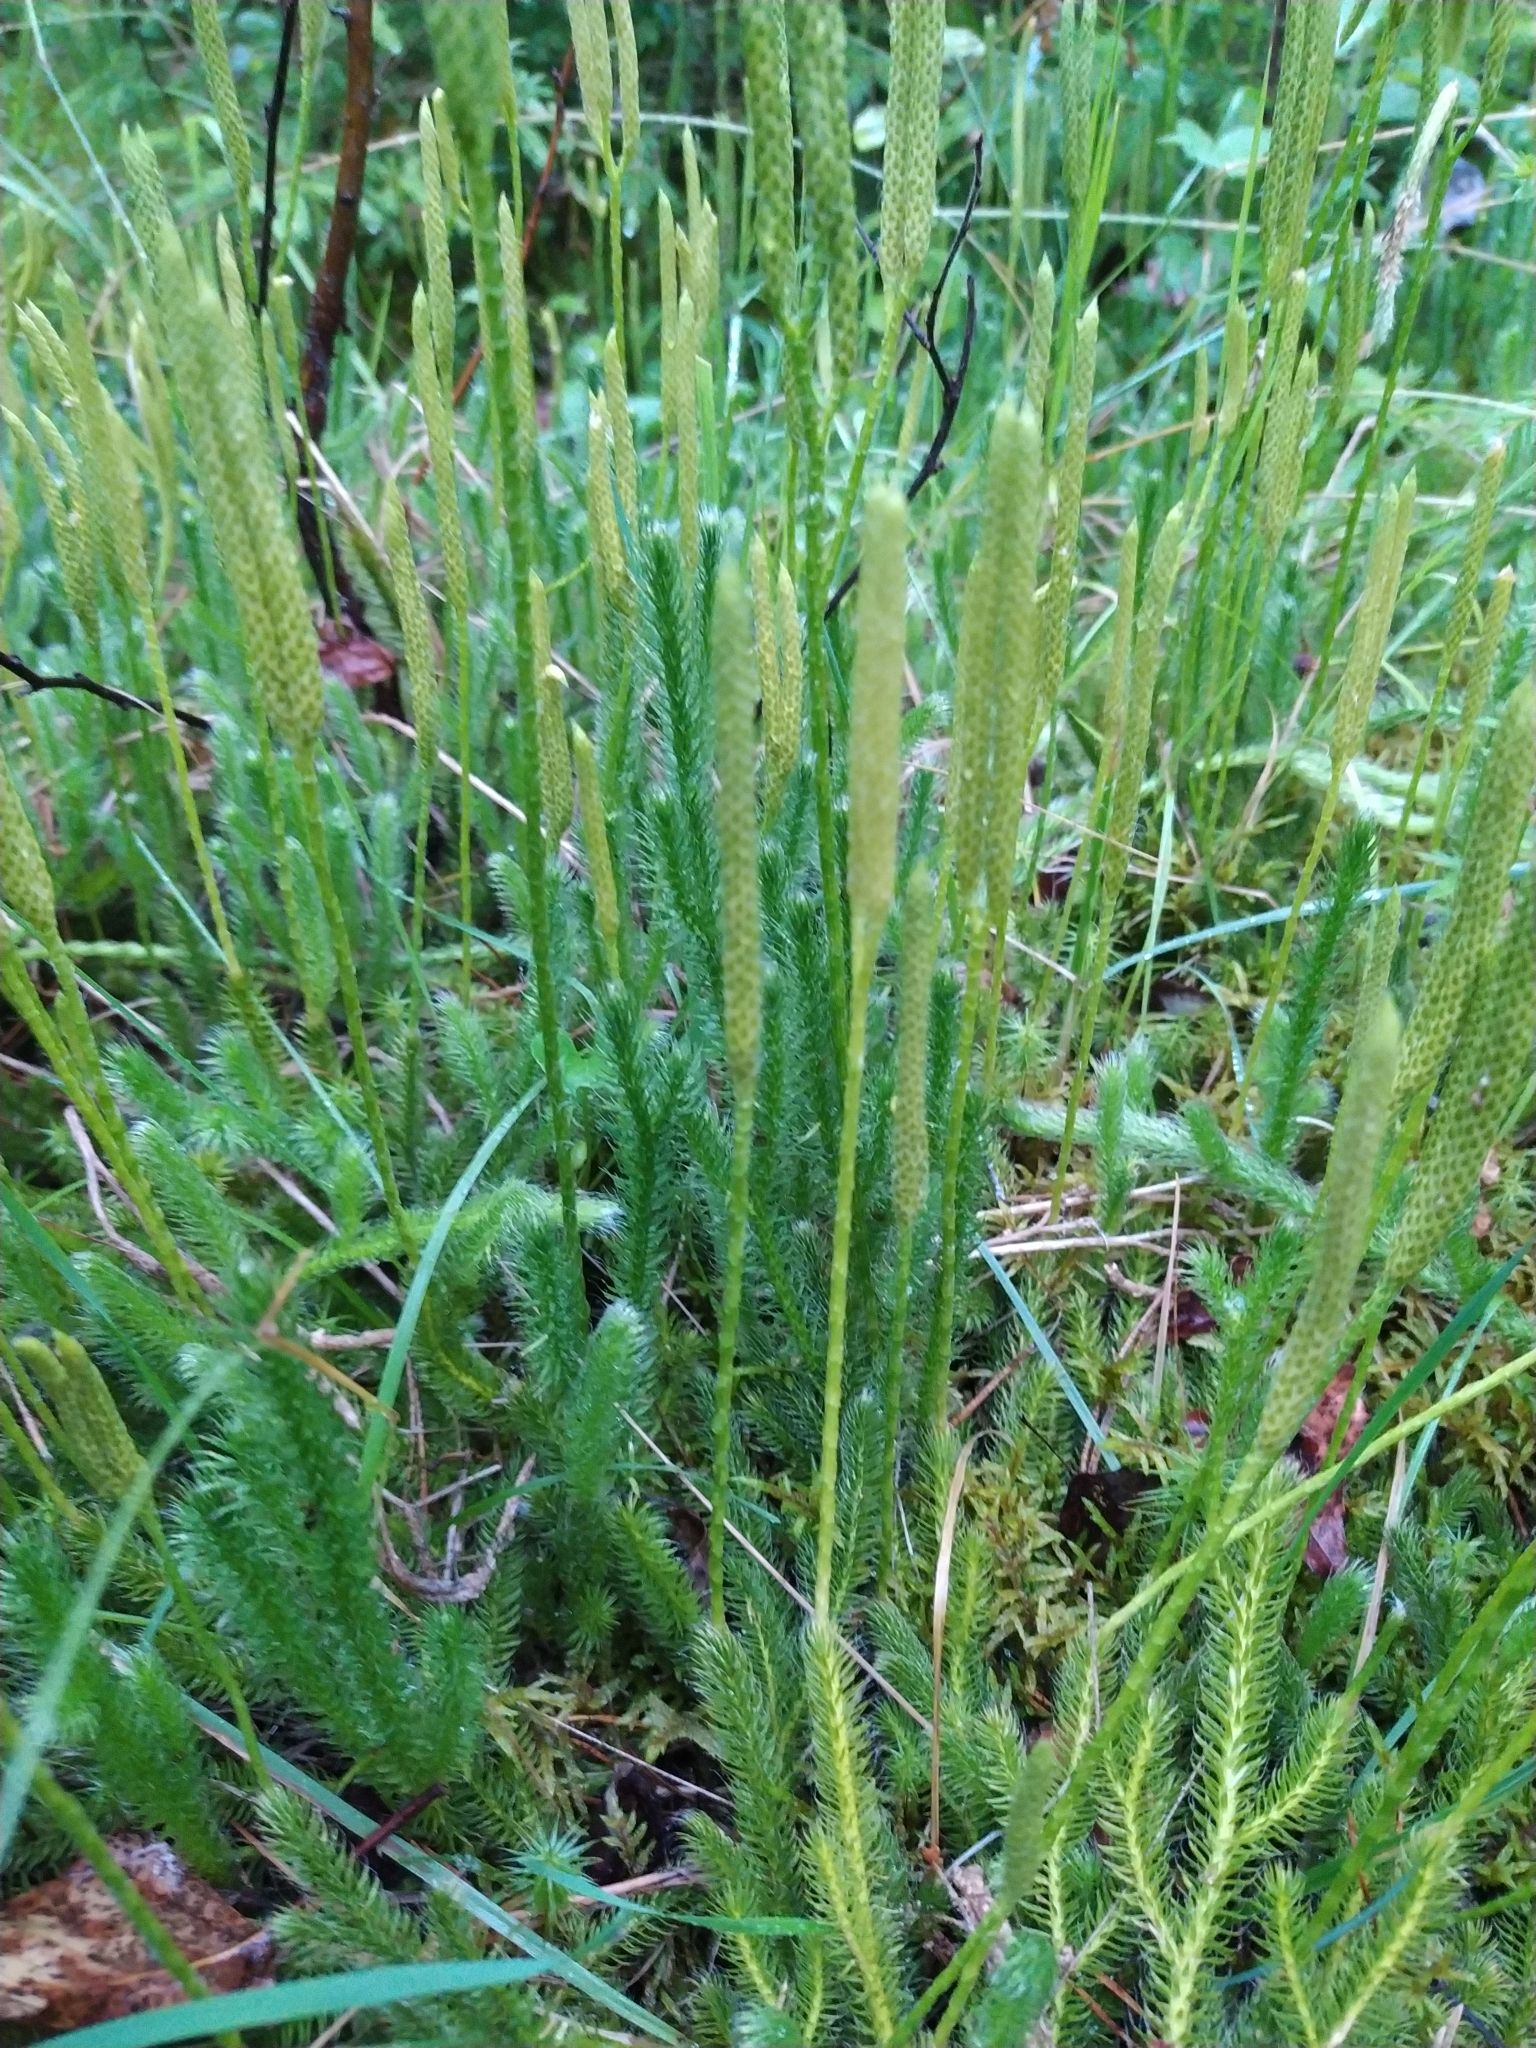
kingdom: Plantae
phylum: Tracheophyta
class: Lycopodiopsida
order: Lycopodiales
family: Lycopodiaceae
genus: Lycopodium
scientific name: Lycopodium clavatum
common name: Stag's-horn clubmoss
